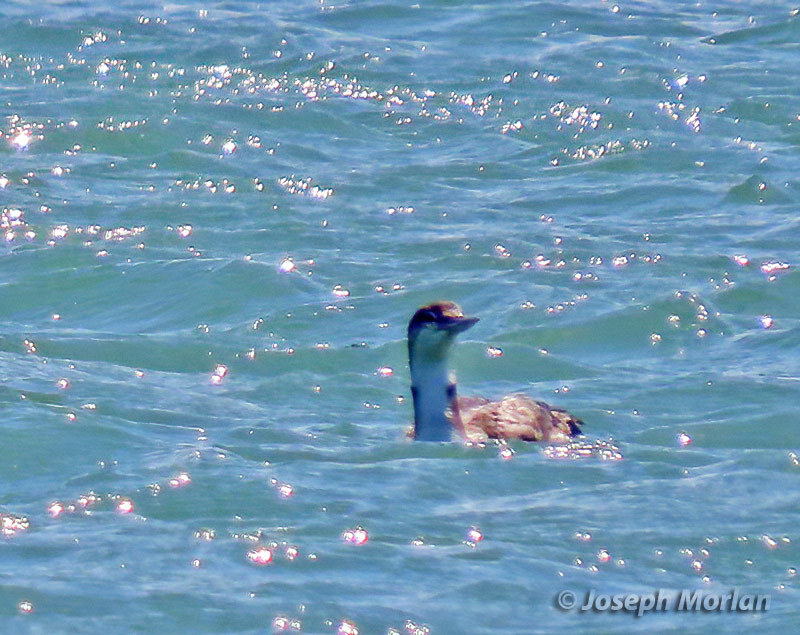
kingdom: Animalia
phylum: Chordata
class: Aves
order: Gaviiformes
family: Gaviidae
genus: Gavia
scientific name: Gavia immer
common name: Common loon
